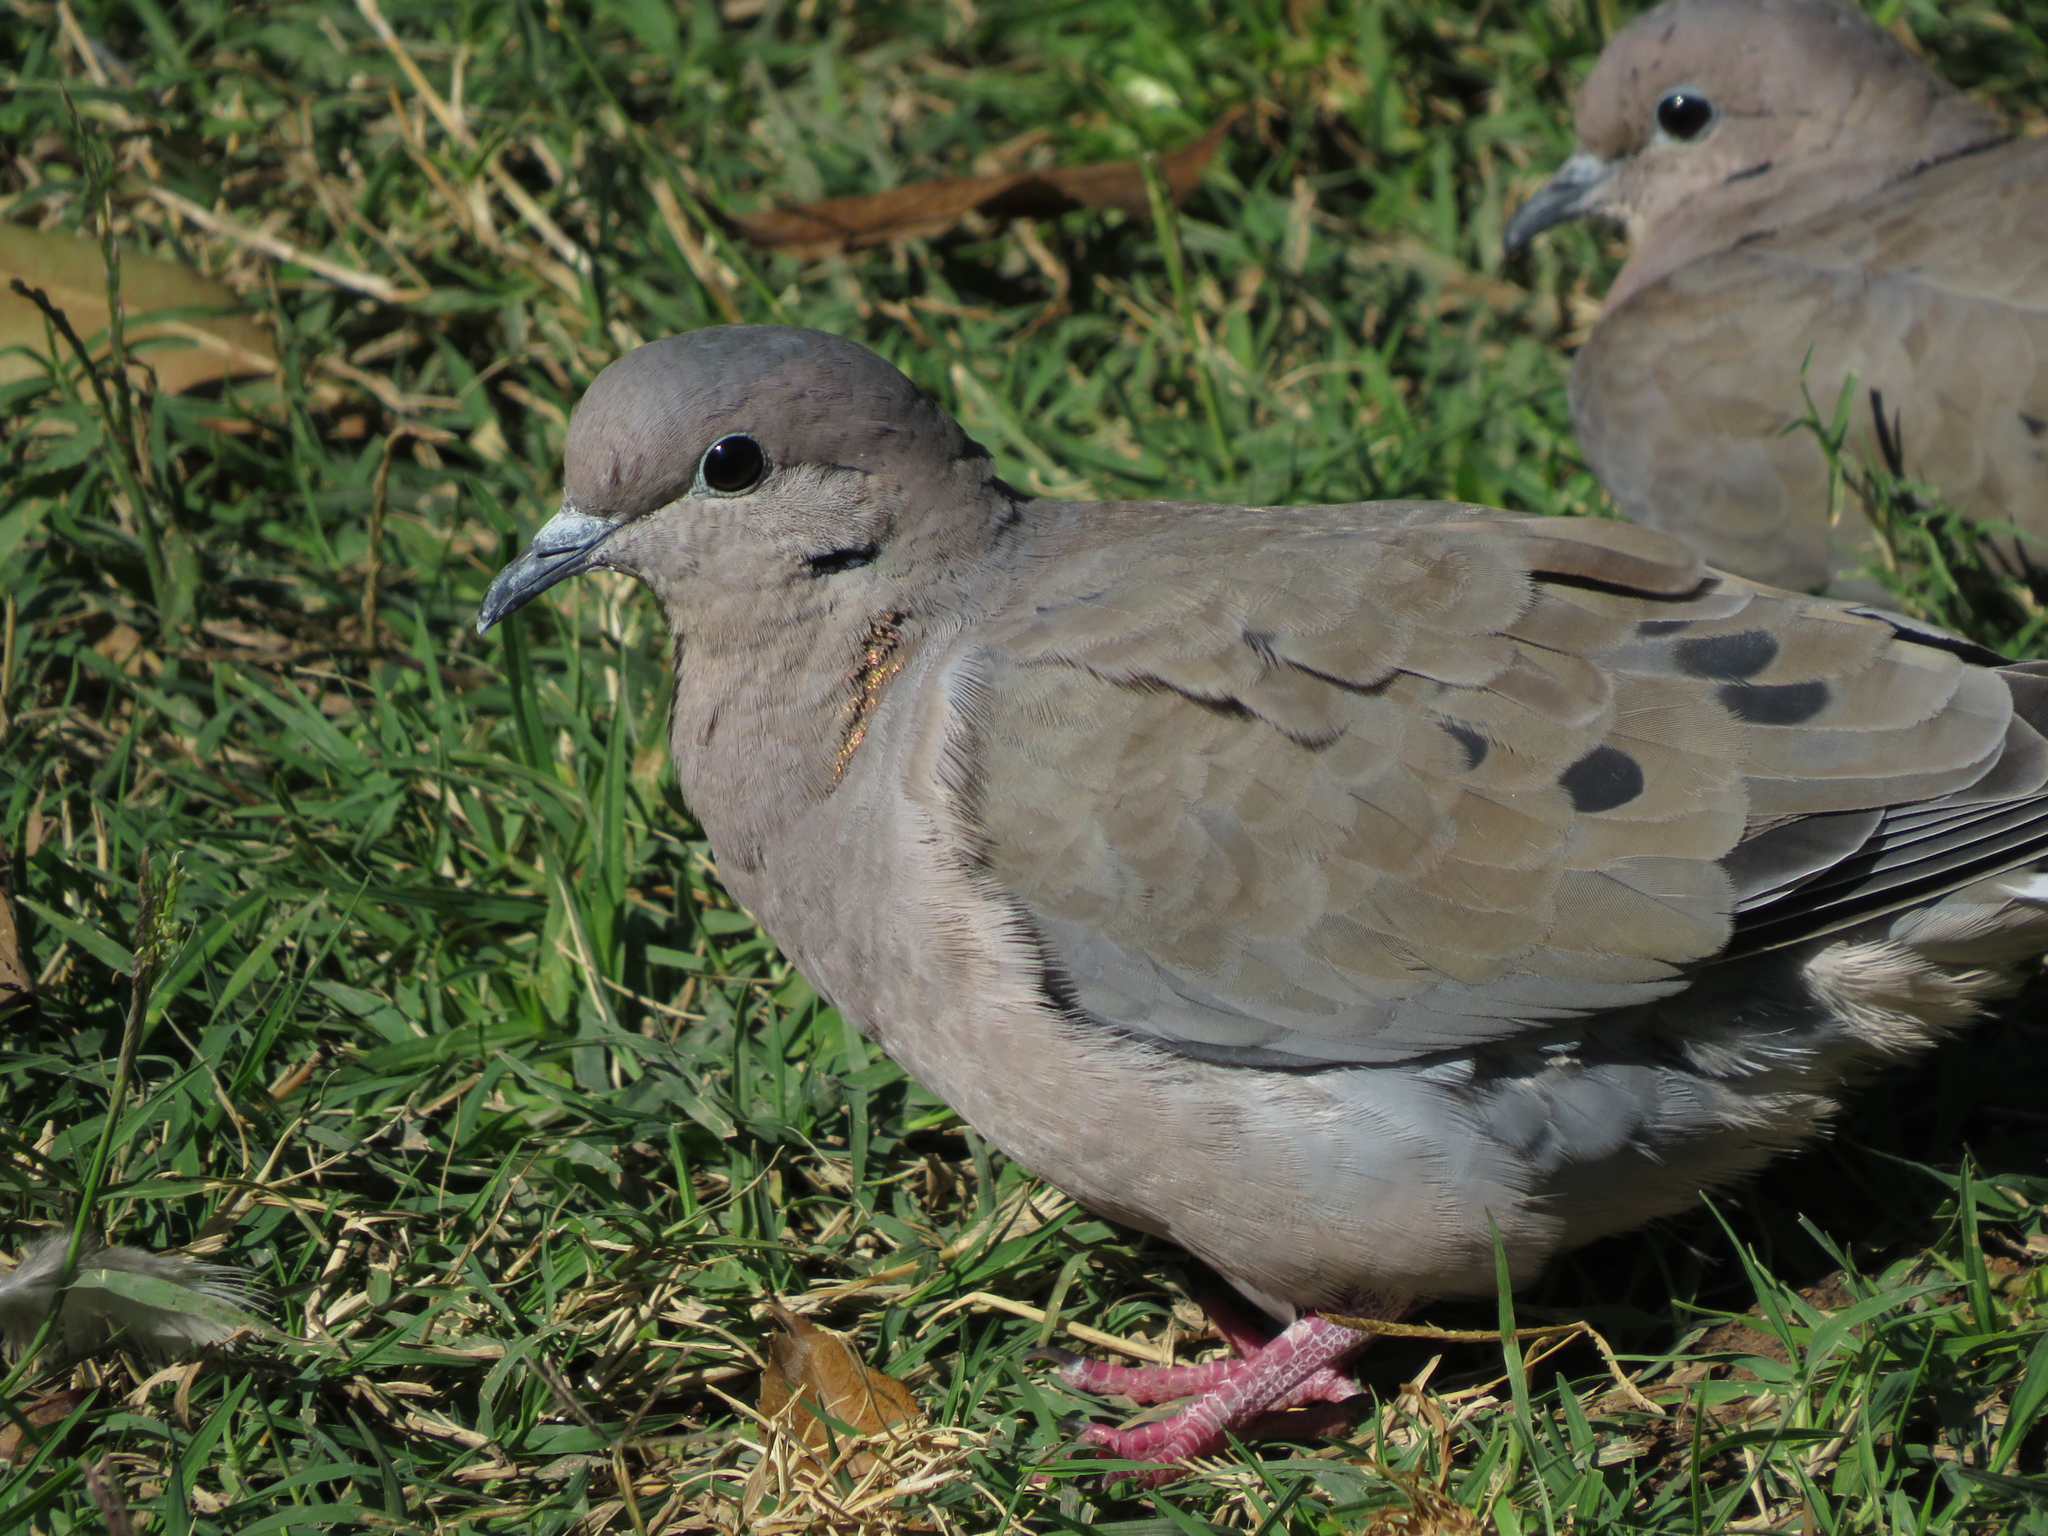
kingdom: Animalia
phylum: Chordata
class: Aves
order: Columbiformes
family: Columbidae
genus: Zenaida
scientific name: Zenaida auriculata
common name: Eared dove
